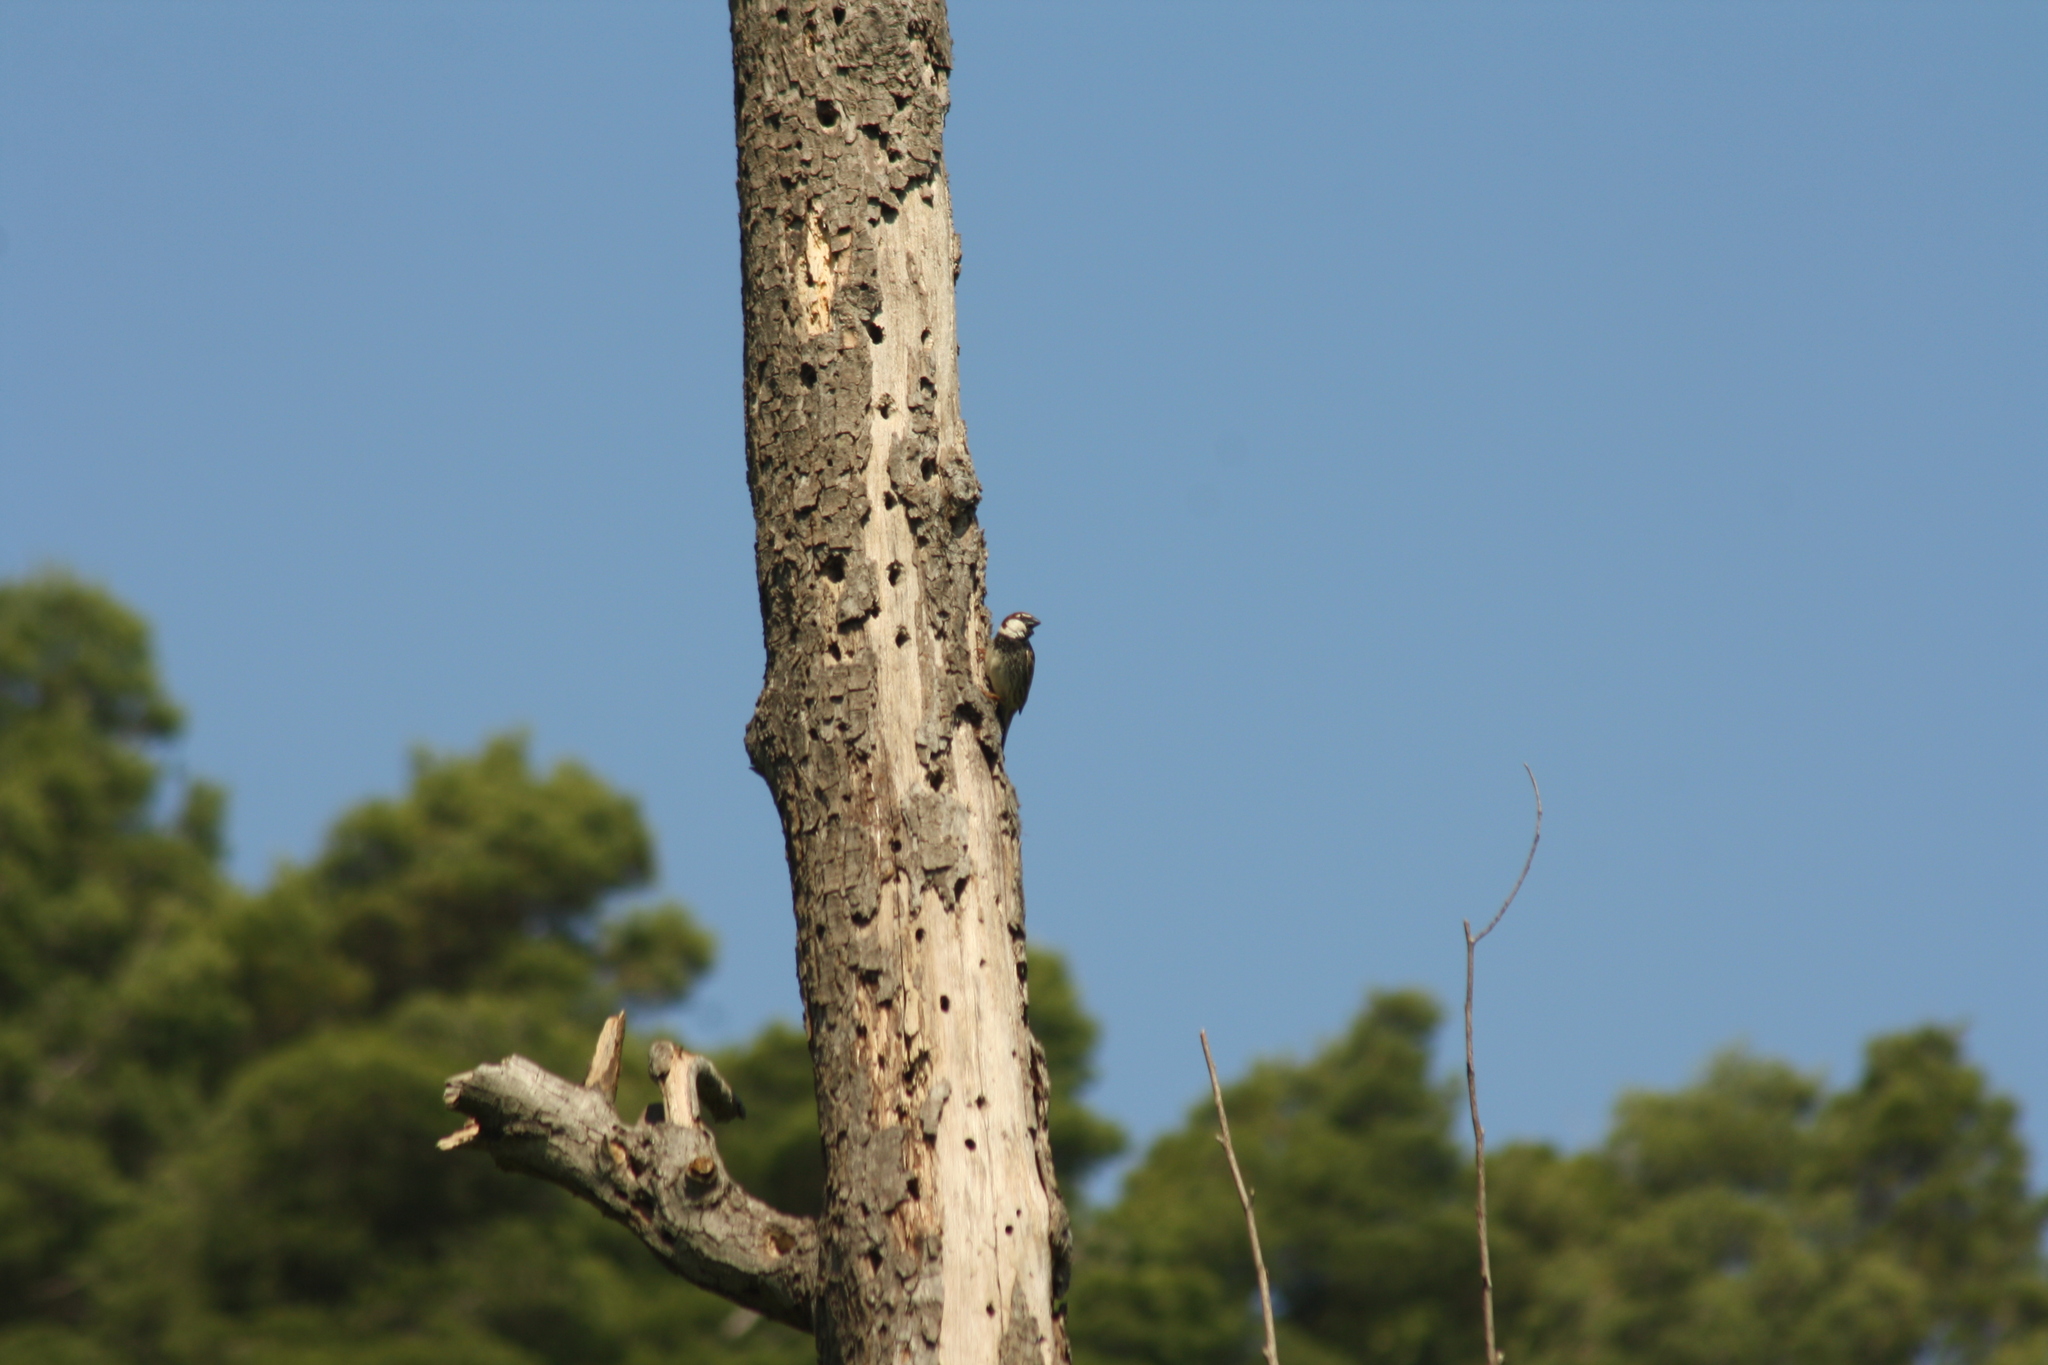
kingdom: Animalia
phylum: Chordata
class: Aves
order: Passeriformes
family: Passeridae
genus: Passer
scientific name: Passer hispaniolensis
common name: Spanish sparrow
